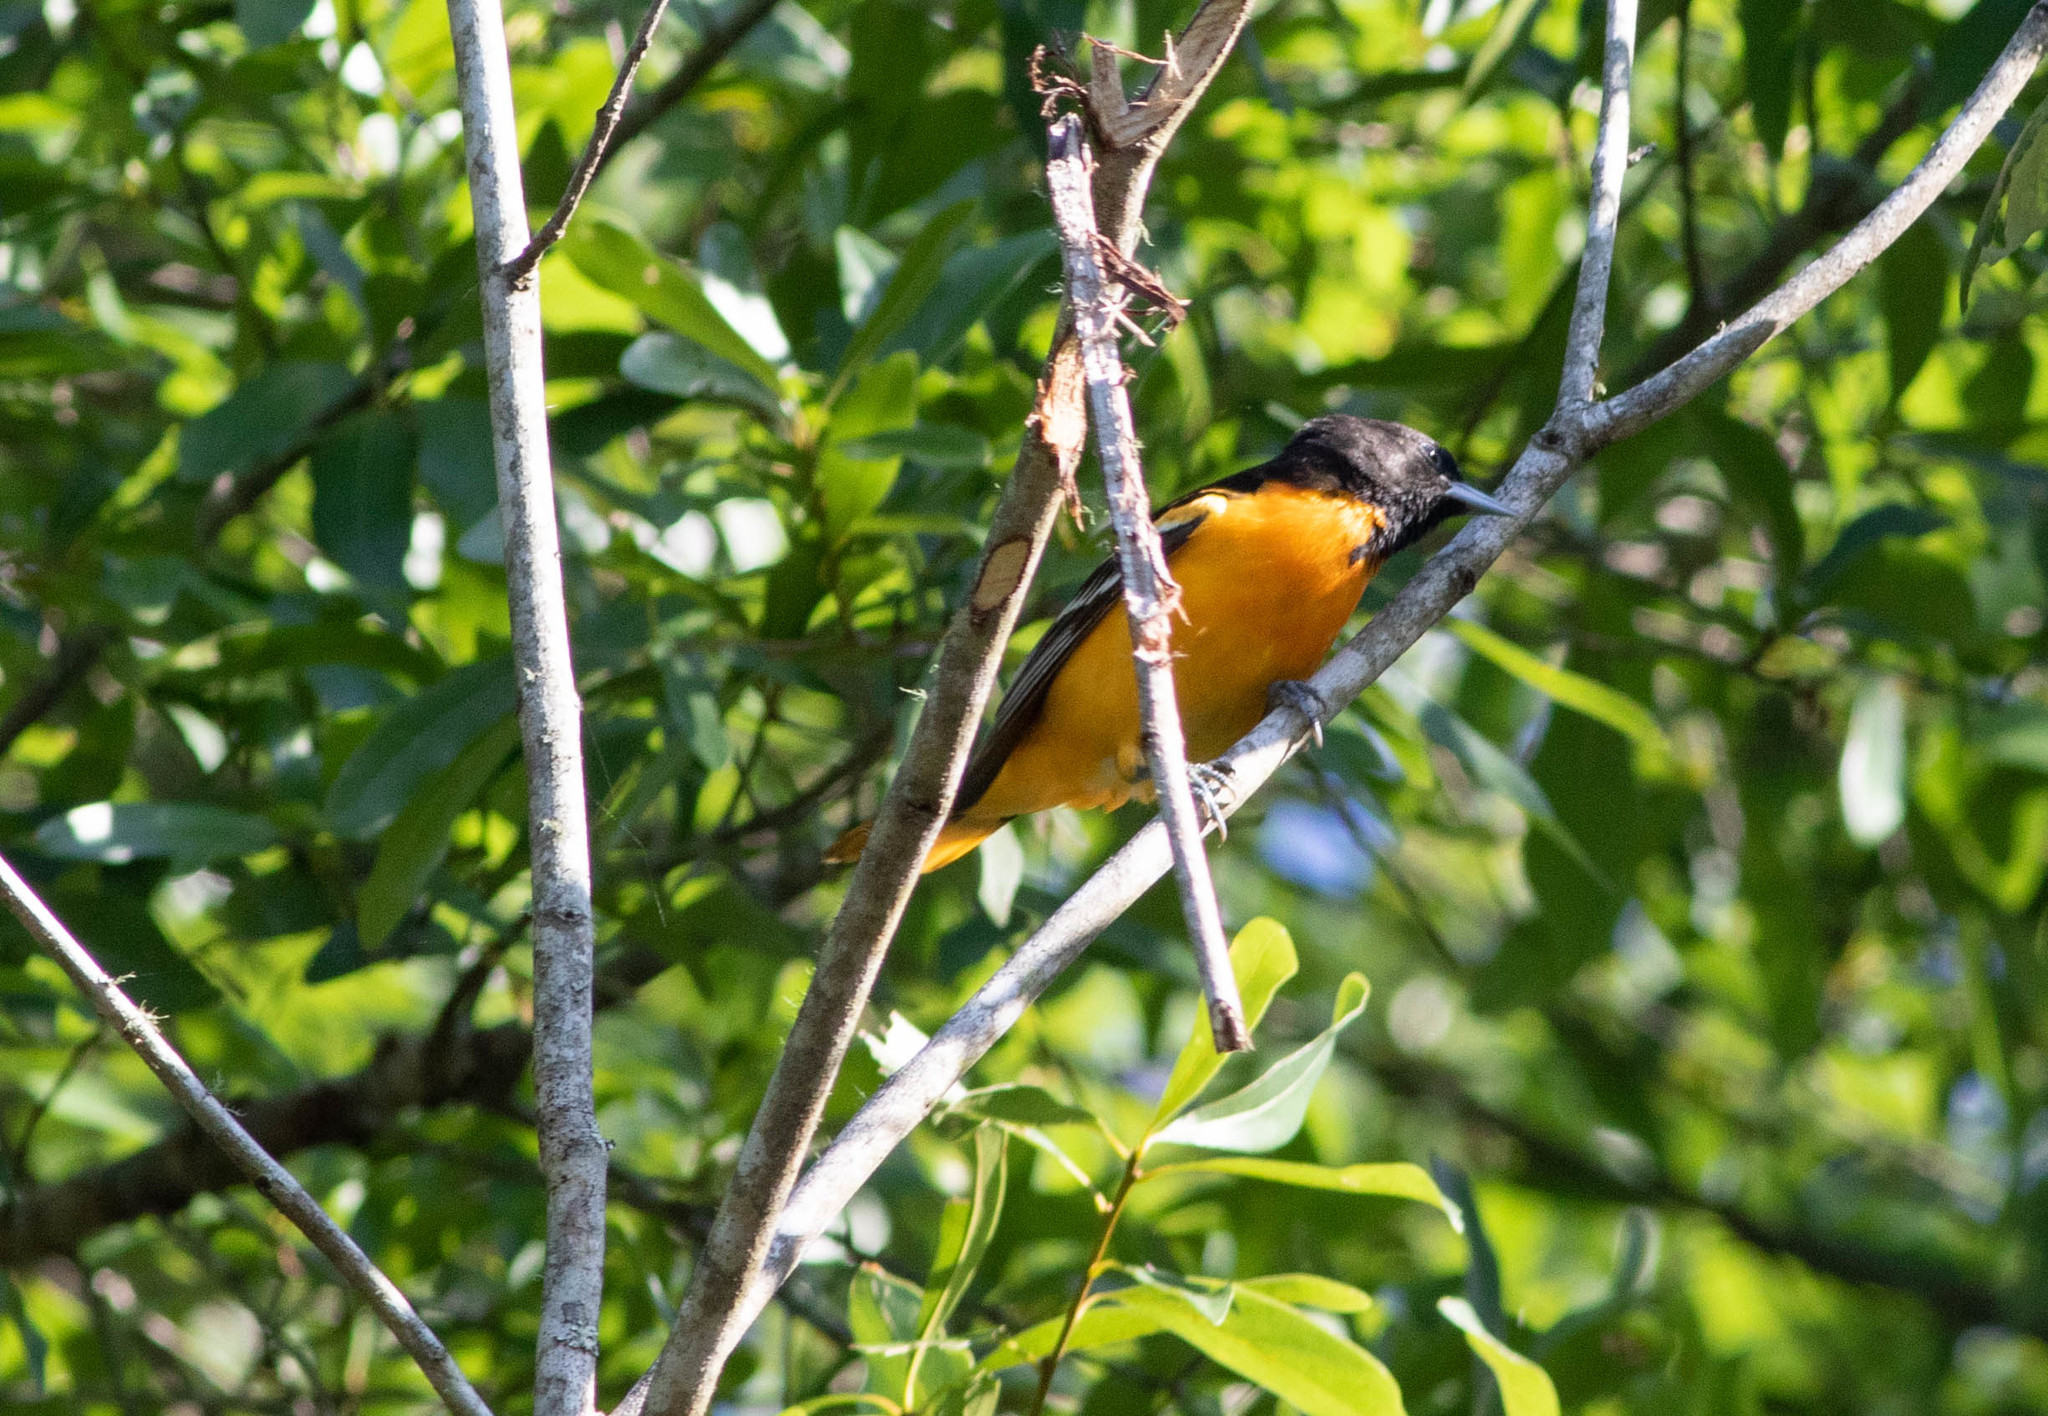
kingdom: Animalia
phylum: Chordata
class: Aves
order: Passeriformes
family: Icteridae
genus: Icterus
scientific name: Icterus galbula
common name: Baltimore oriole
